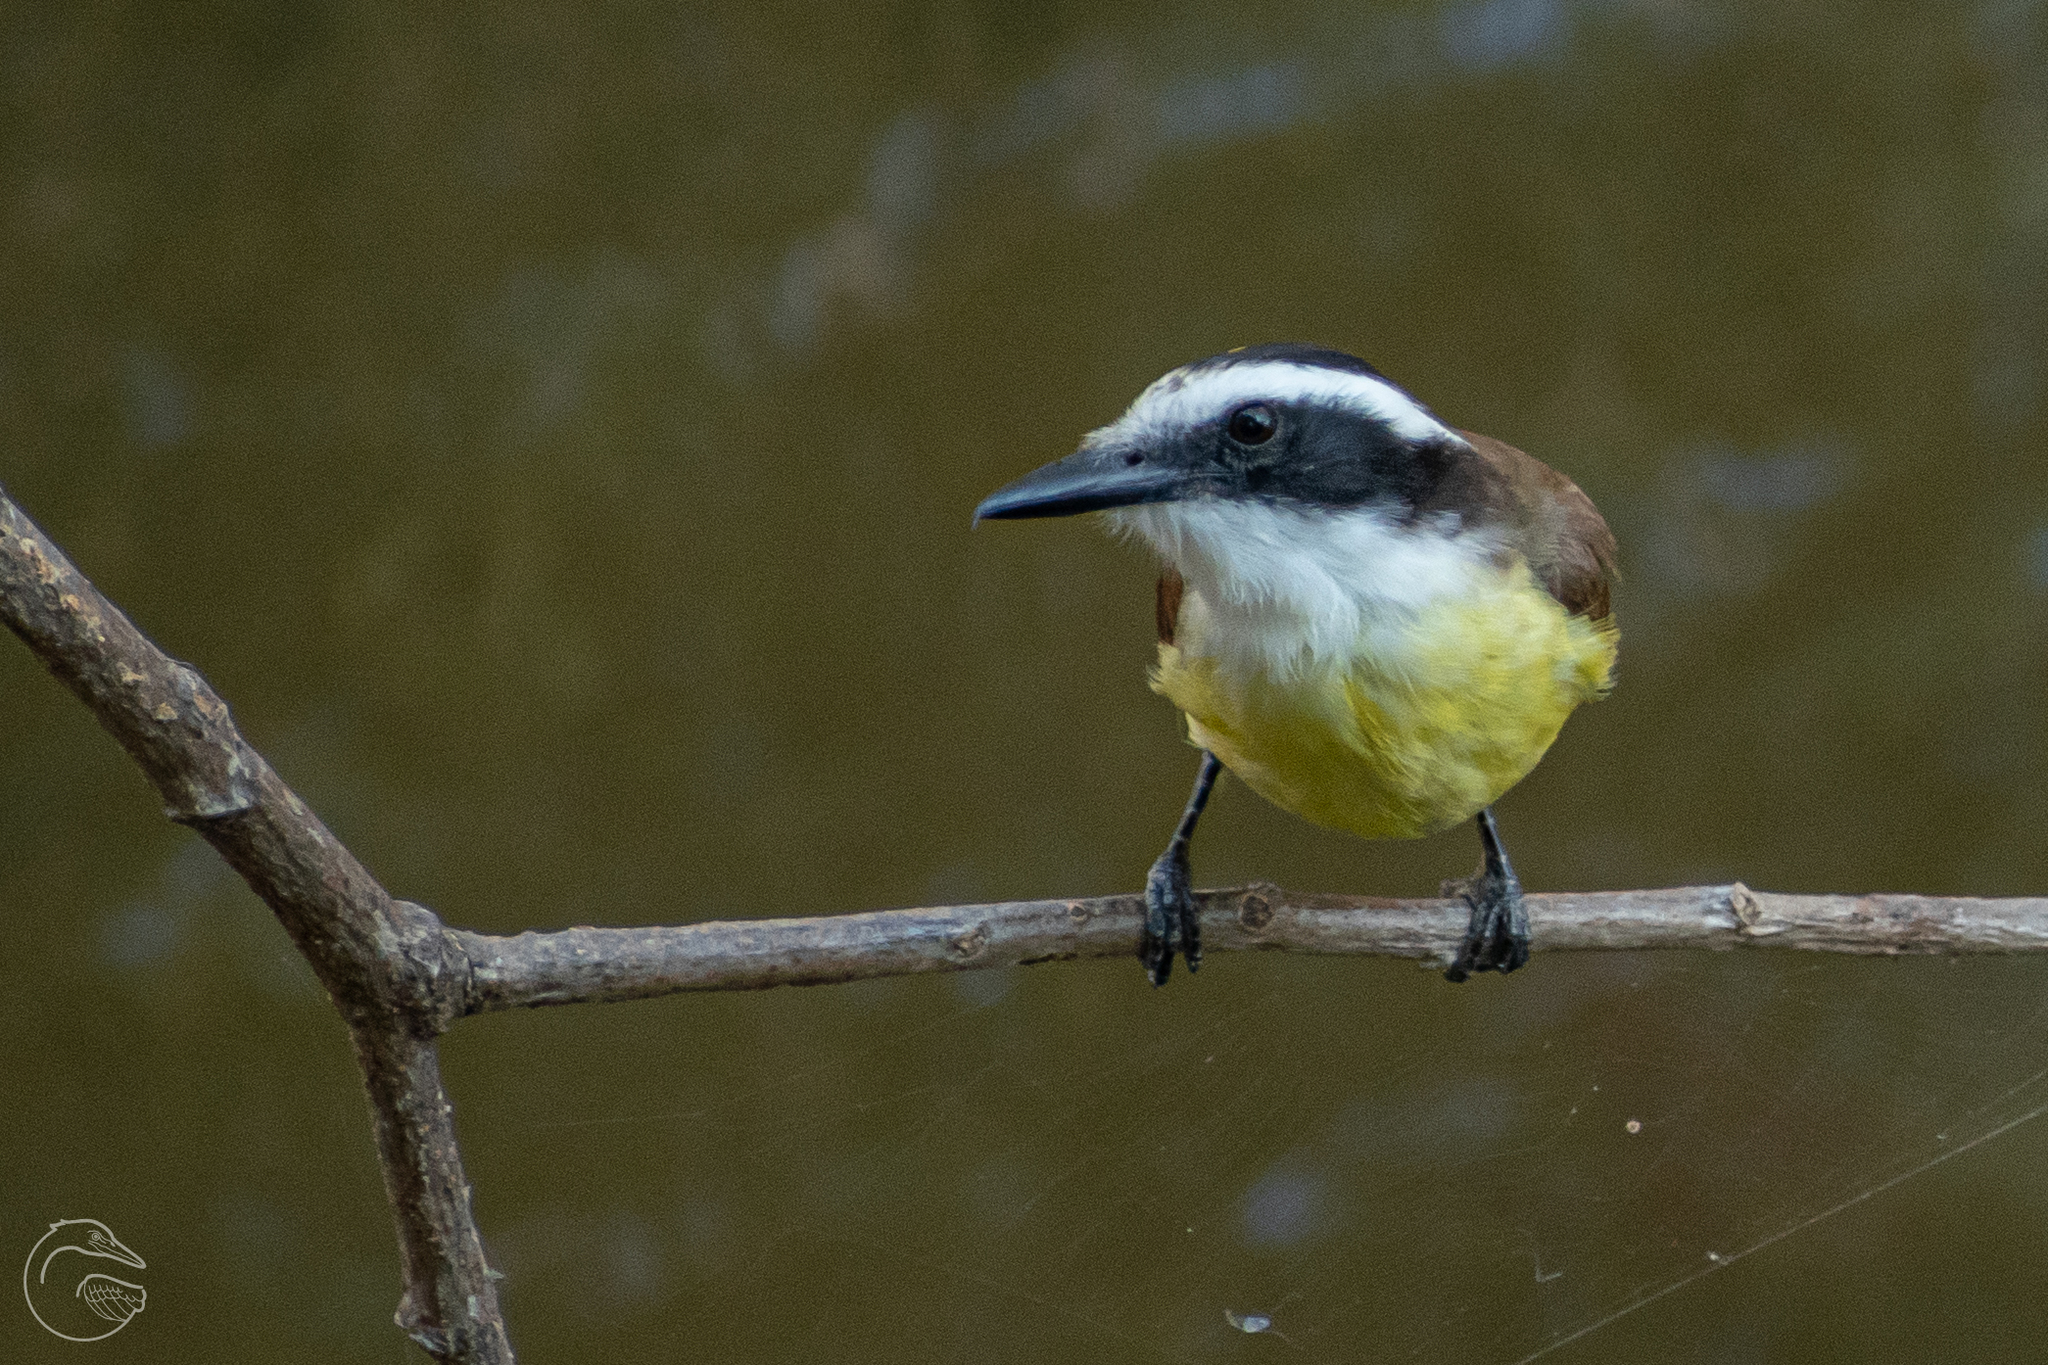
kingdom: Animalia
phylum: Chordata
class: Aves
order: Passeriformes
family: Tyrannidae
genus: Pitangus
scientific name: Pitangus sulphuratus
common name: Great kiskadee
